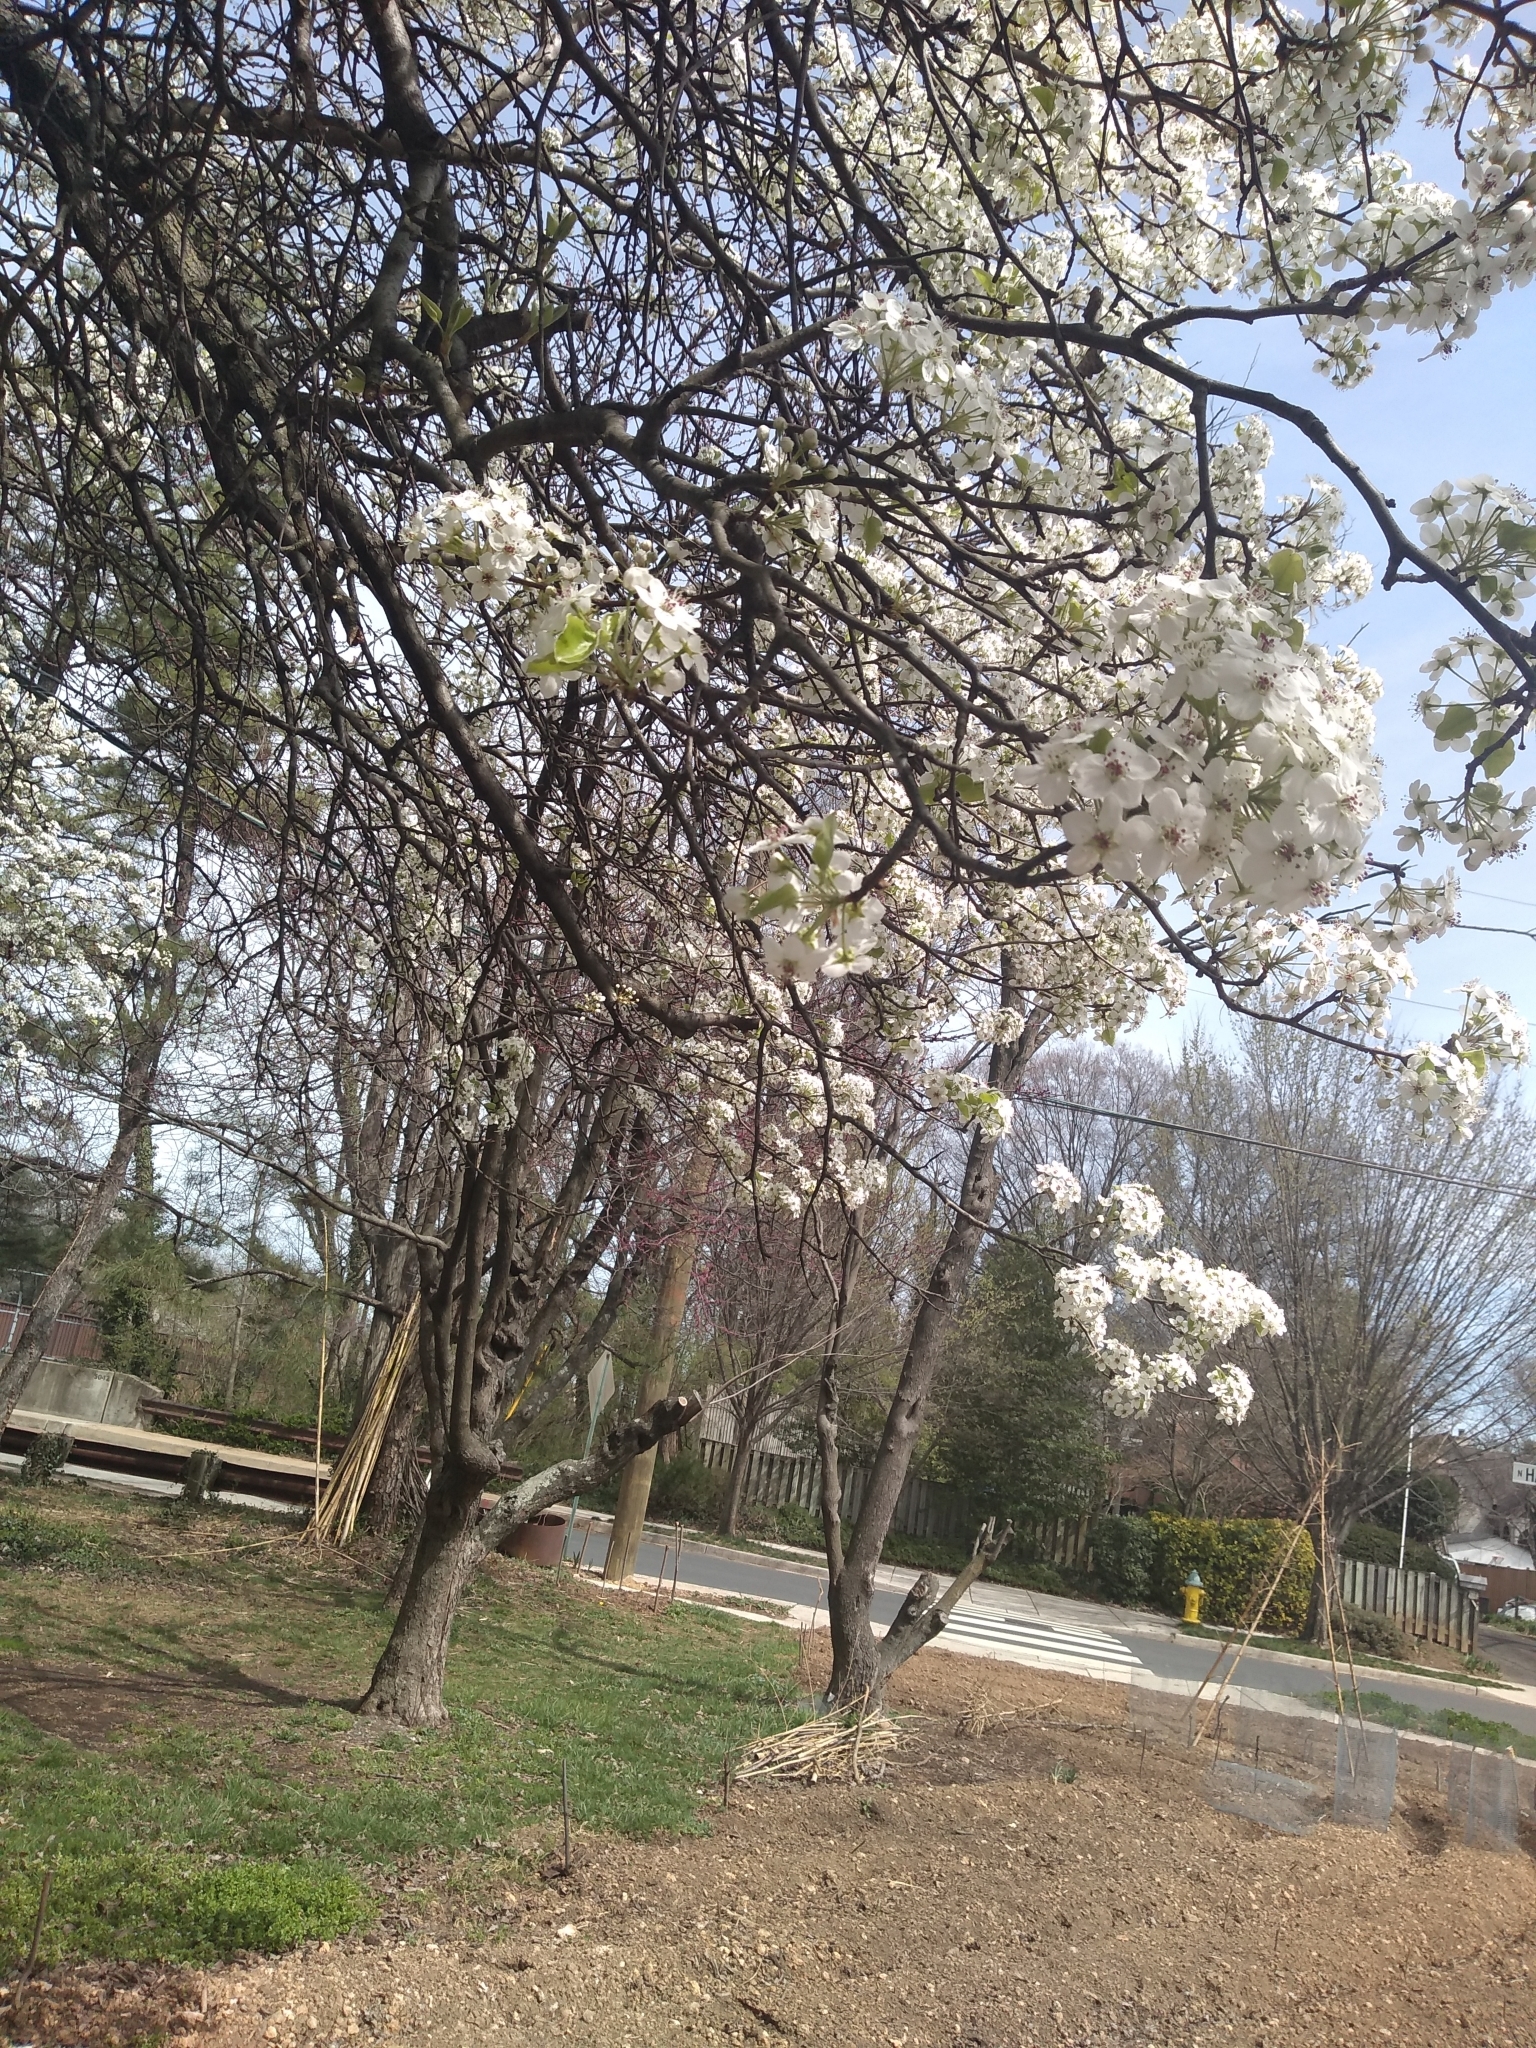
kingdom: Plantae
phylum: Tracheophyta
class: Magnoliopsida
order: Rosales
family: Rosaceae
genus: Pyrus
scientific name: Pyrus calleryana
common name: Callery pear
